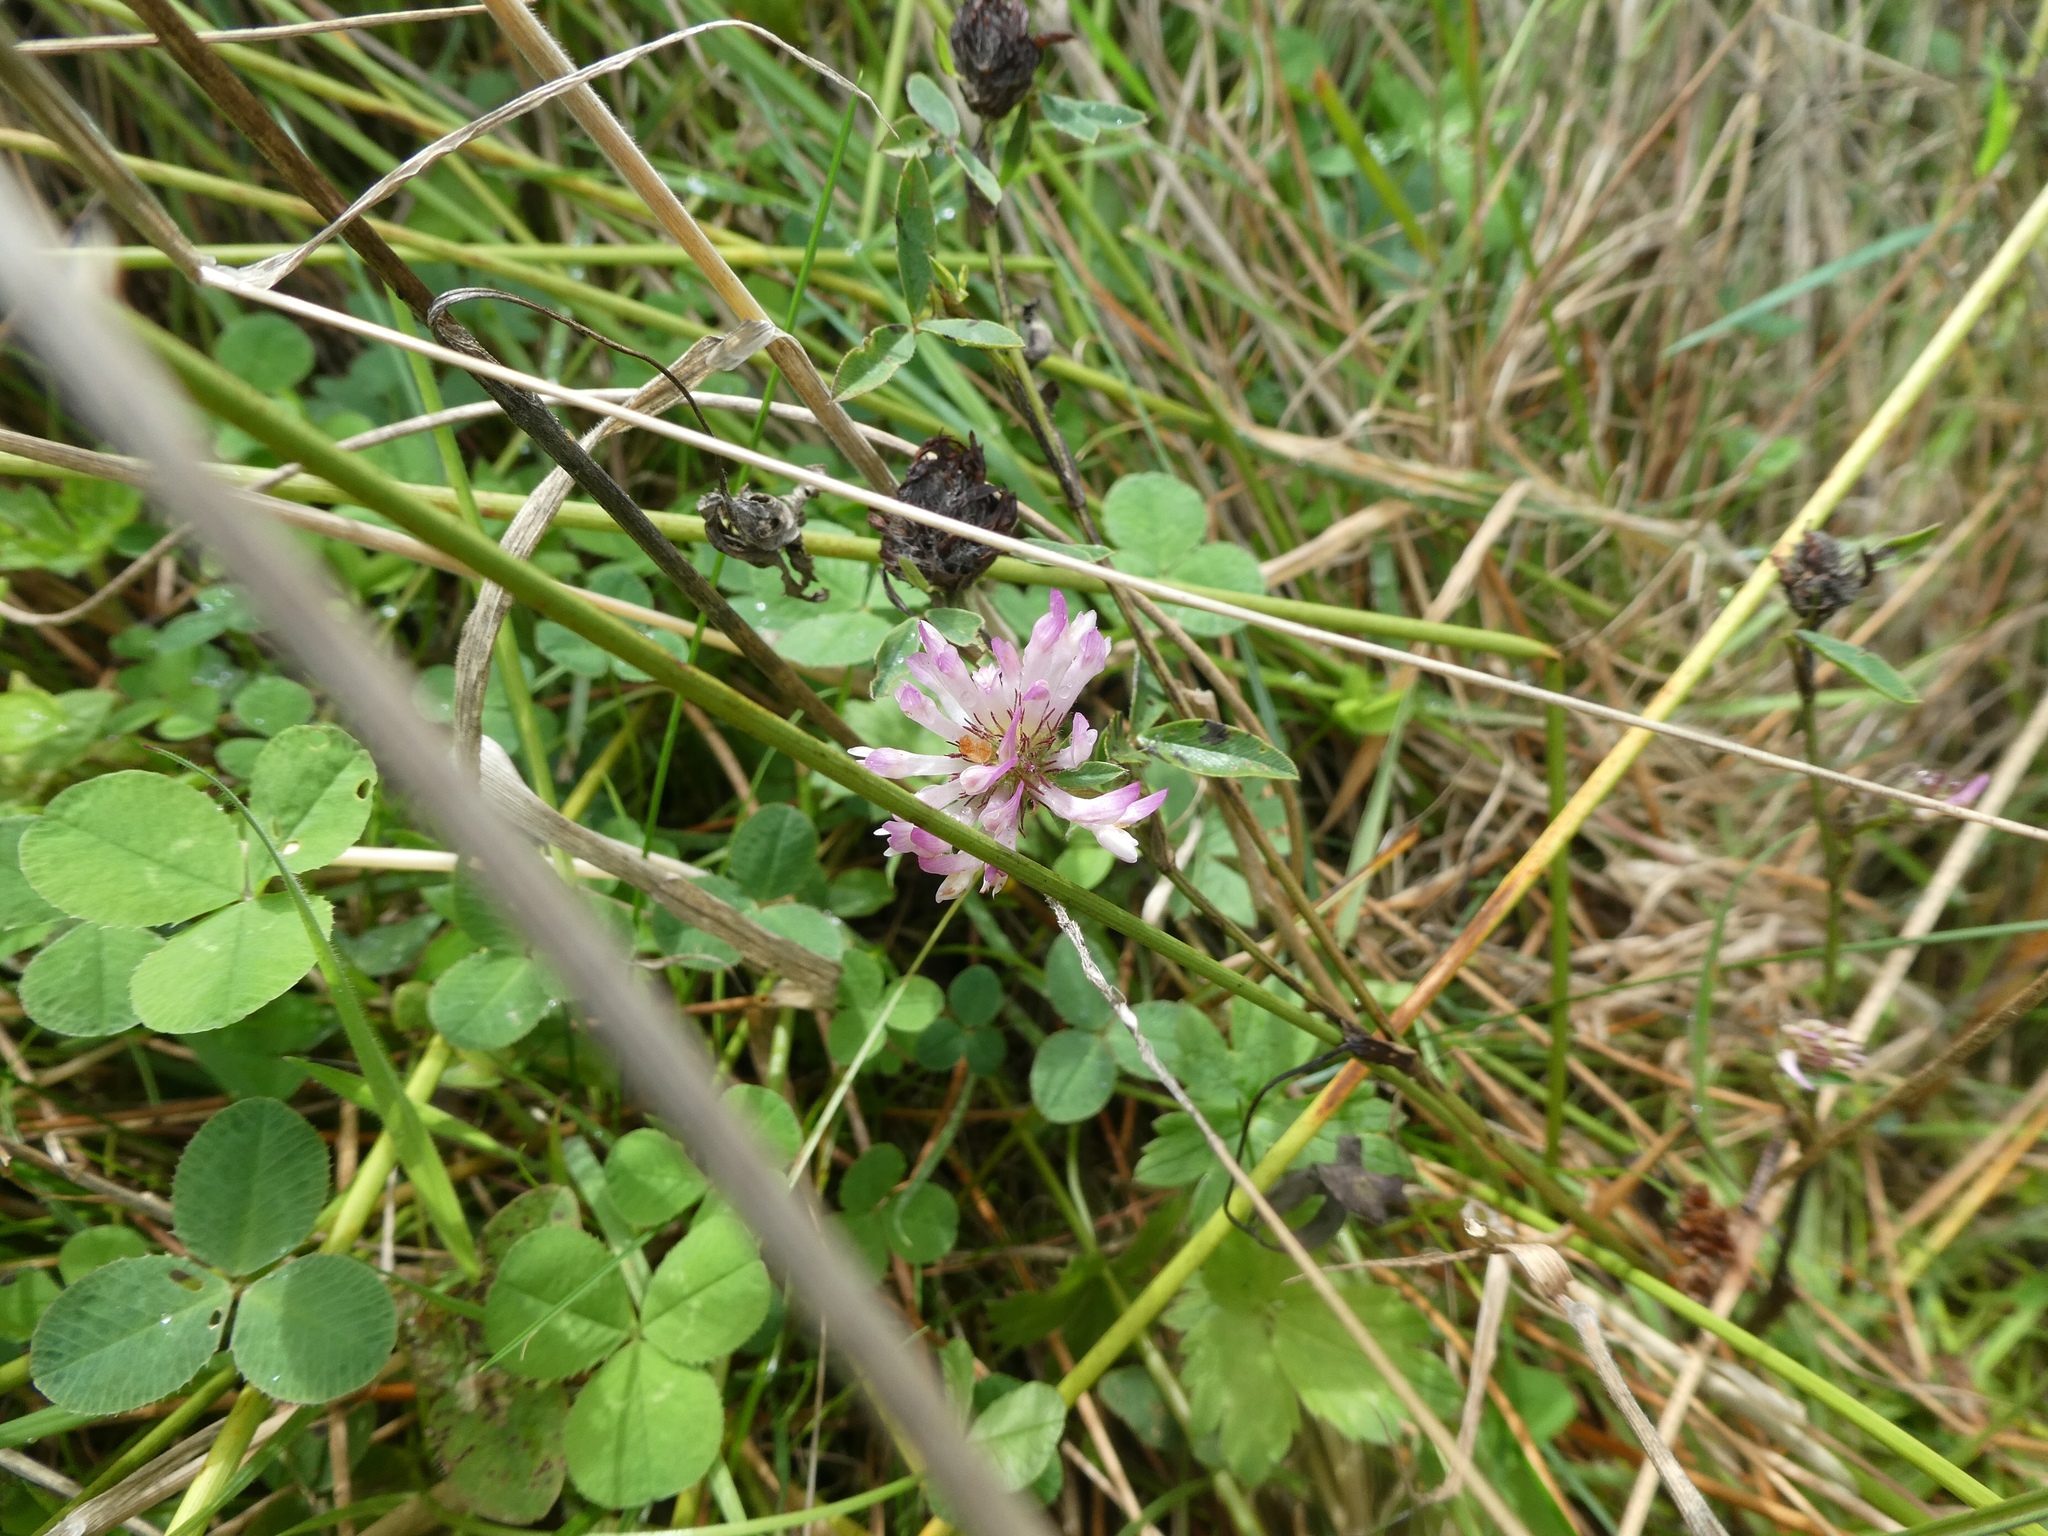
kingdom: Plantae
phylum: Tracheophyta
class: Magnoliopsida
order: Fabales
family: Fabaceae
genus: Trifolium
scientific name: Trifolium medium
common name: Zigzag clover
